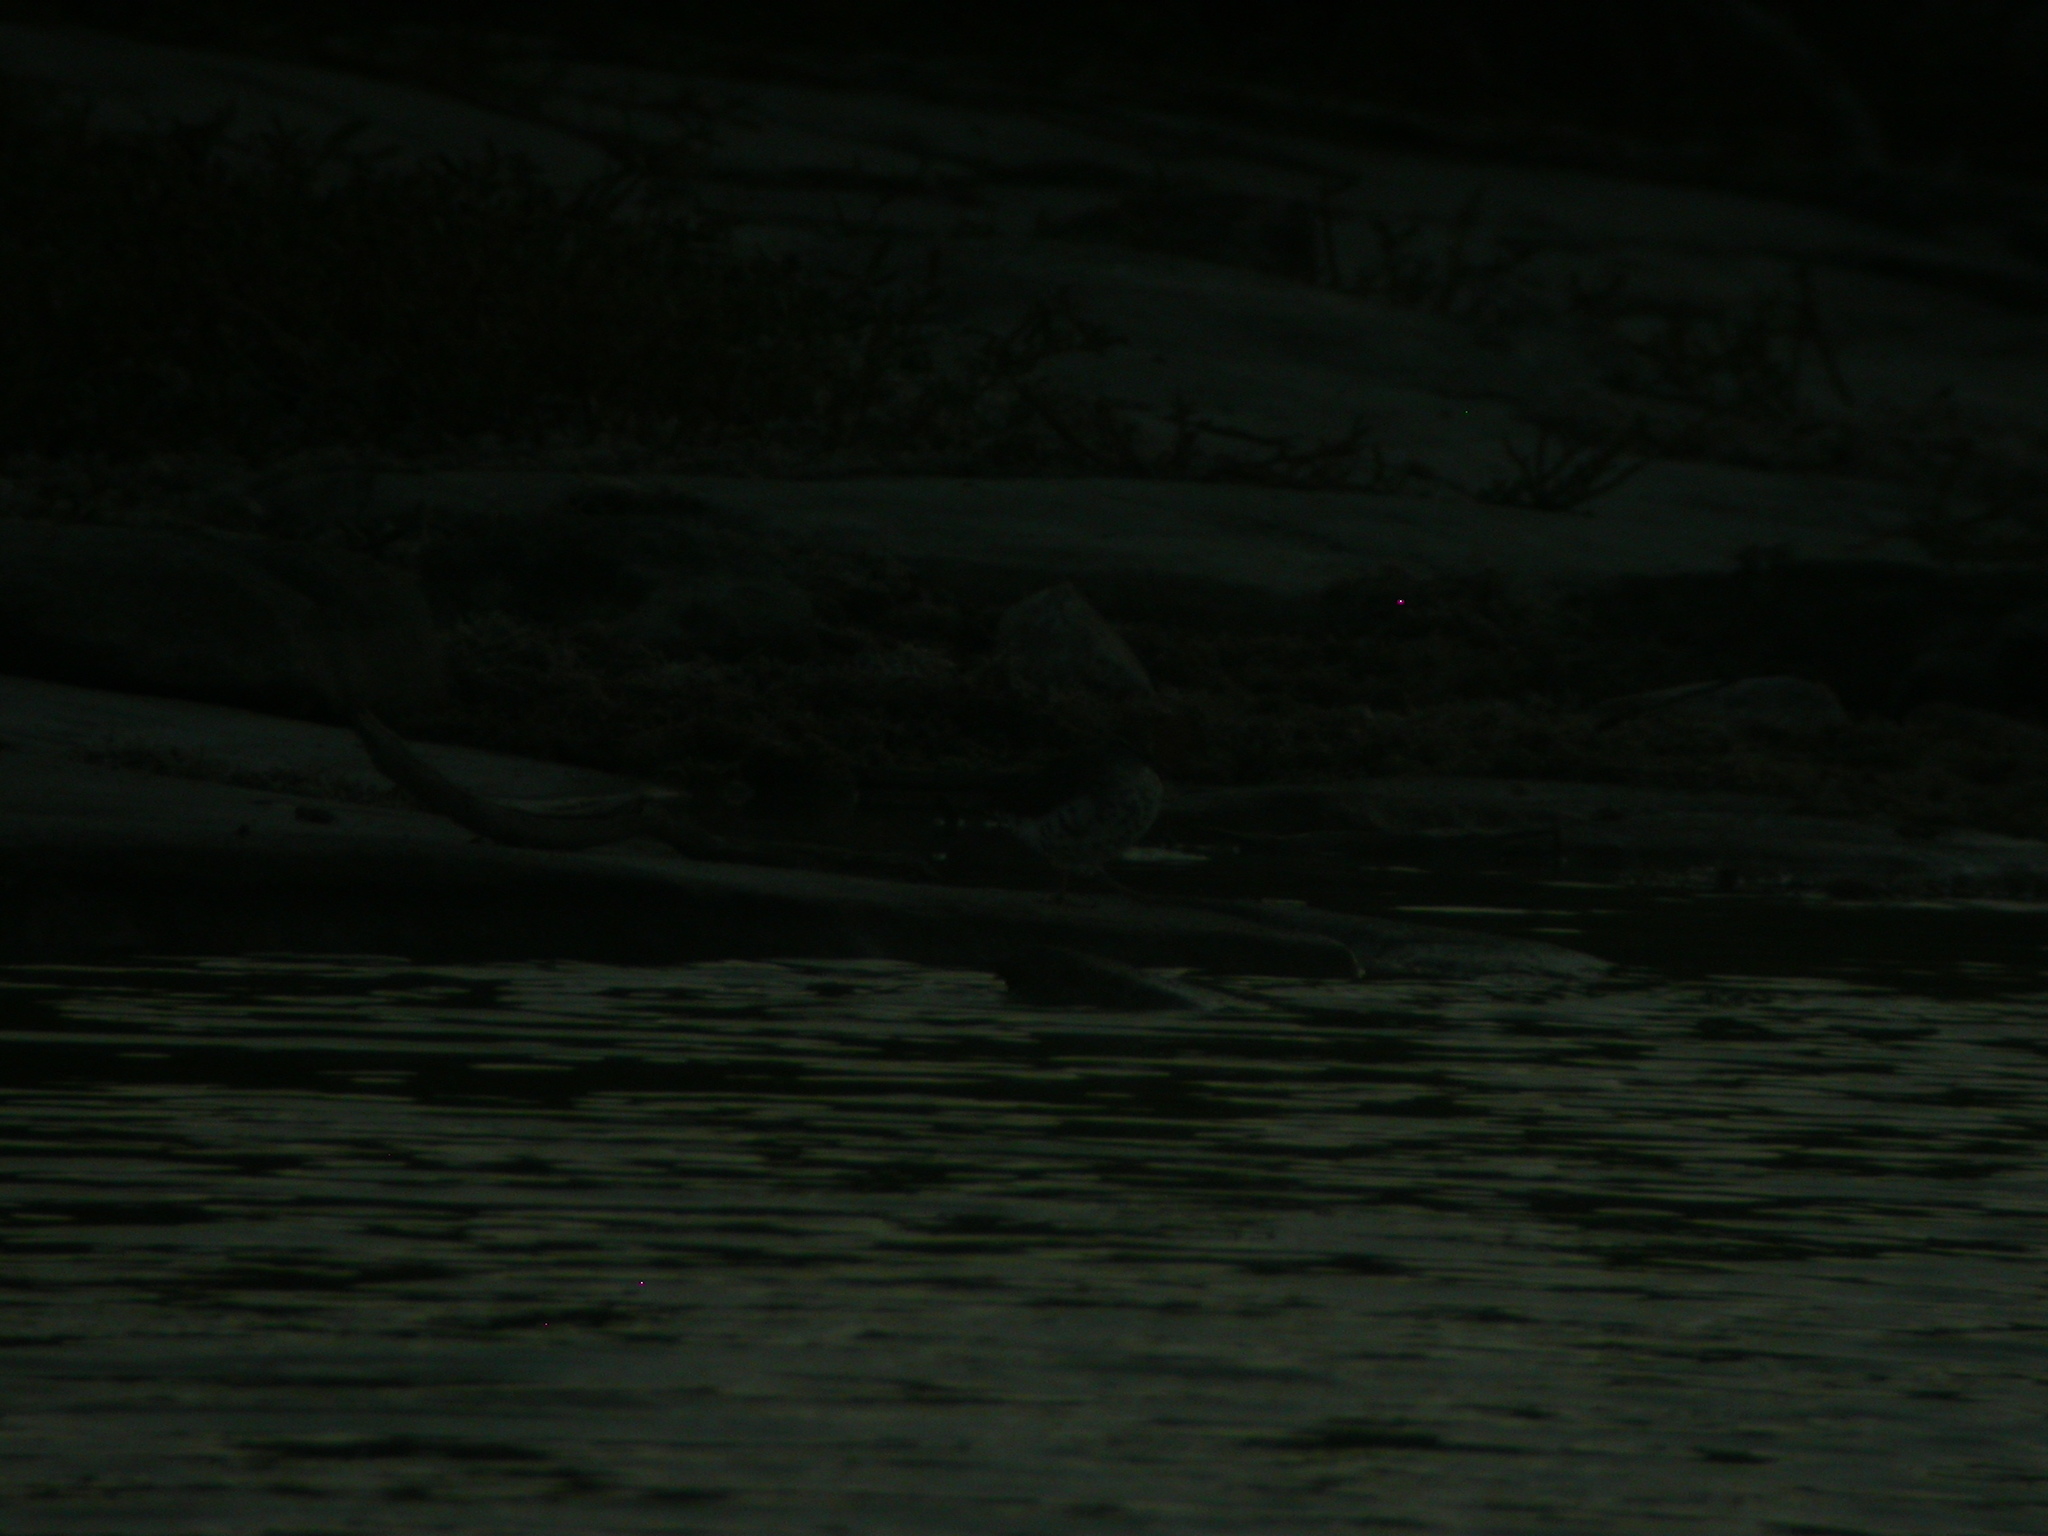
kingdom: Animalia
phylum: Chordata
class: Aves
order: Charadriiformes
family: Scolopacidae
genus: Actitis
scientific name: Actitis macularius
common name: Spotted sandpiper
